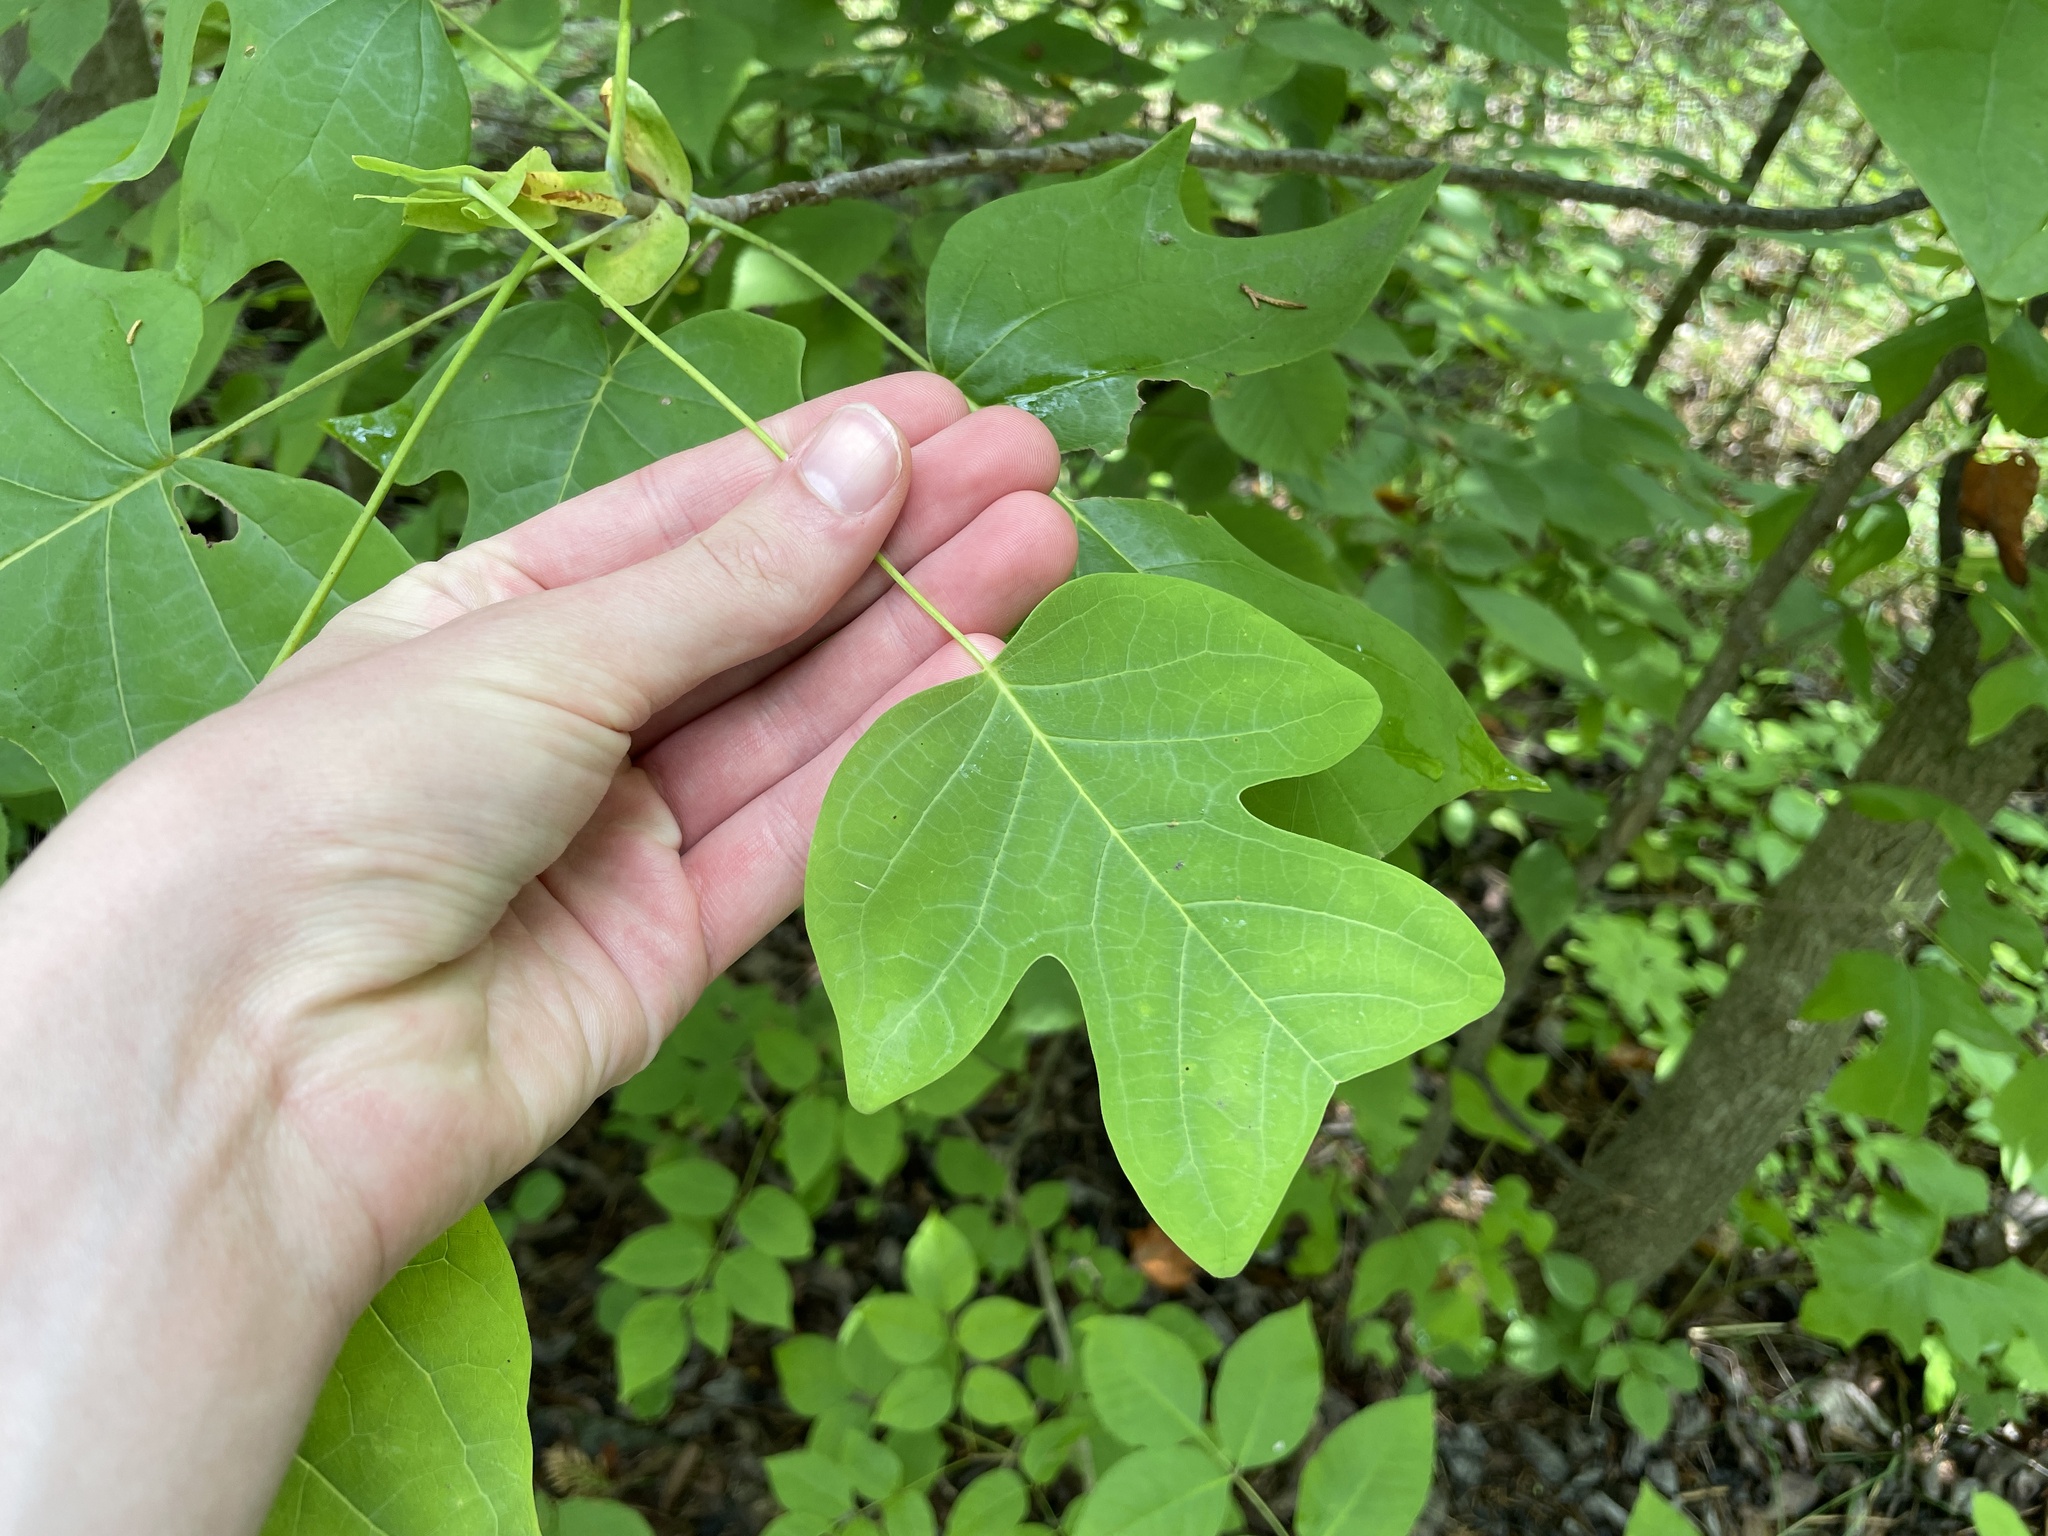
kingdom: Plantae
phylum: Tracheophyta
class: Magnoliopsida
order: Magnoliales
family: Magnoliaceae
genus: Liriodendron
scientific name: Liriodendron tulipifera
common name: Tulip tree
